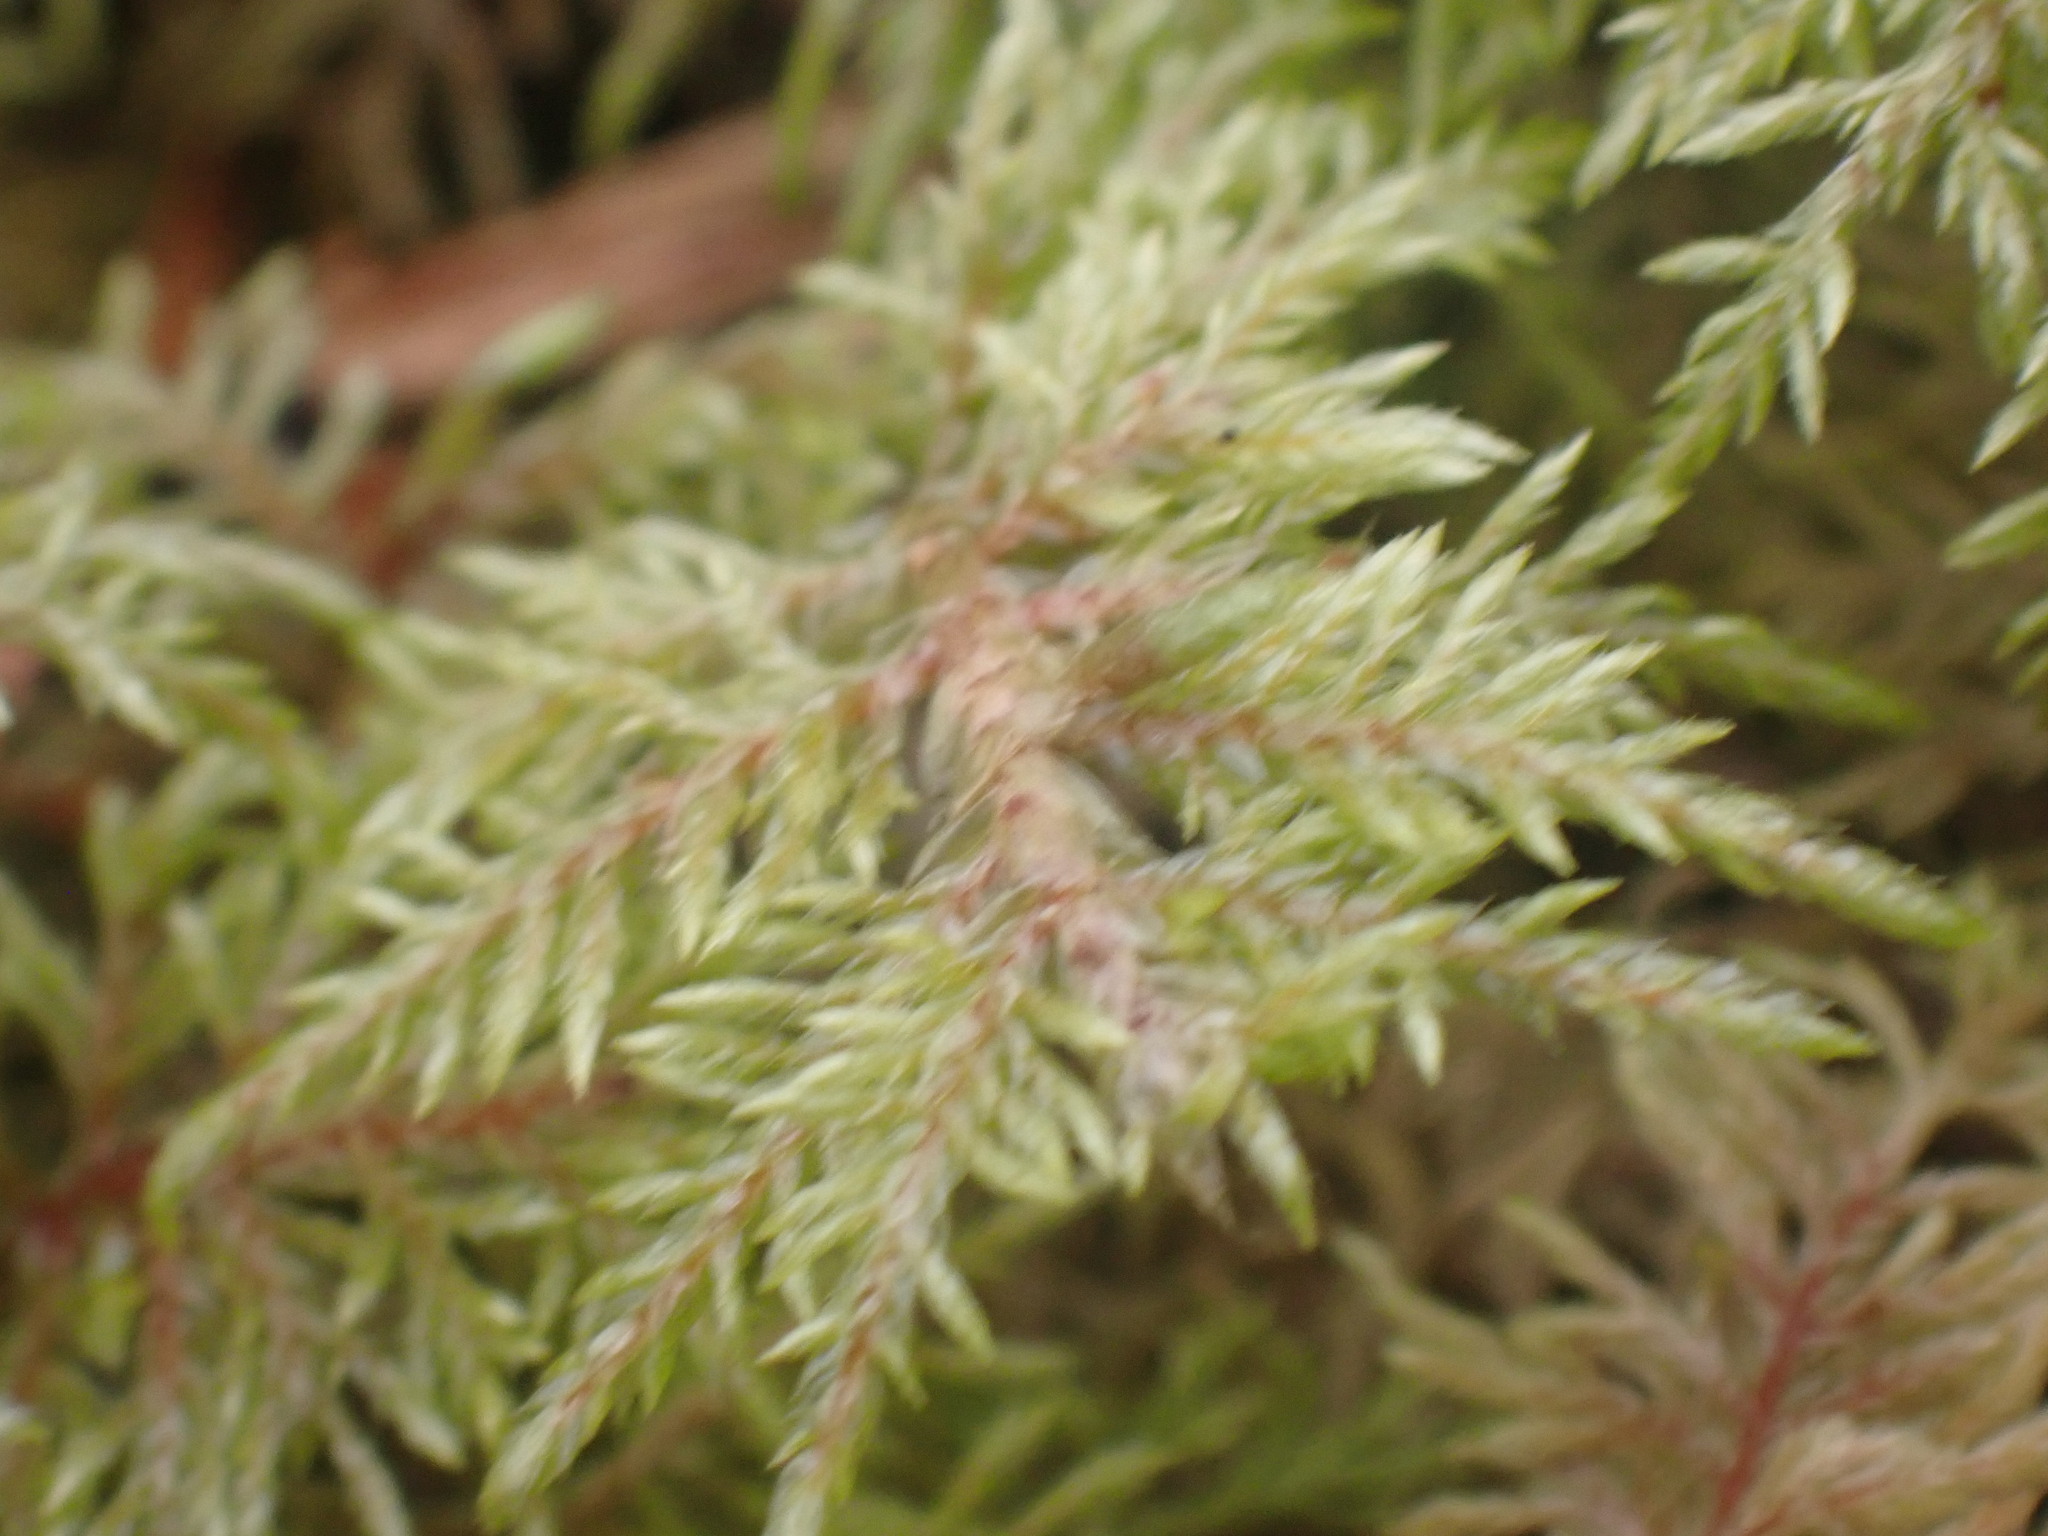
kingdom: Plantae
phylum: Bryophyta
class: Bryopsida
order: Hypnales
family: Hylocomiaceae
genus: Hylocomium
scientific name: Hylocomium splendens
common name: Stairstep moss
